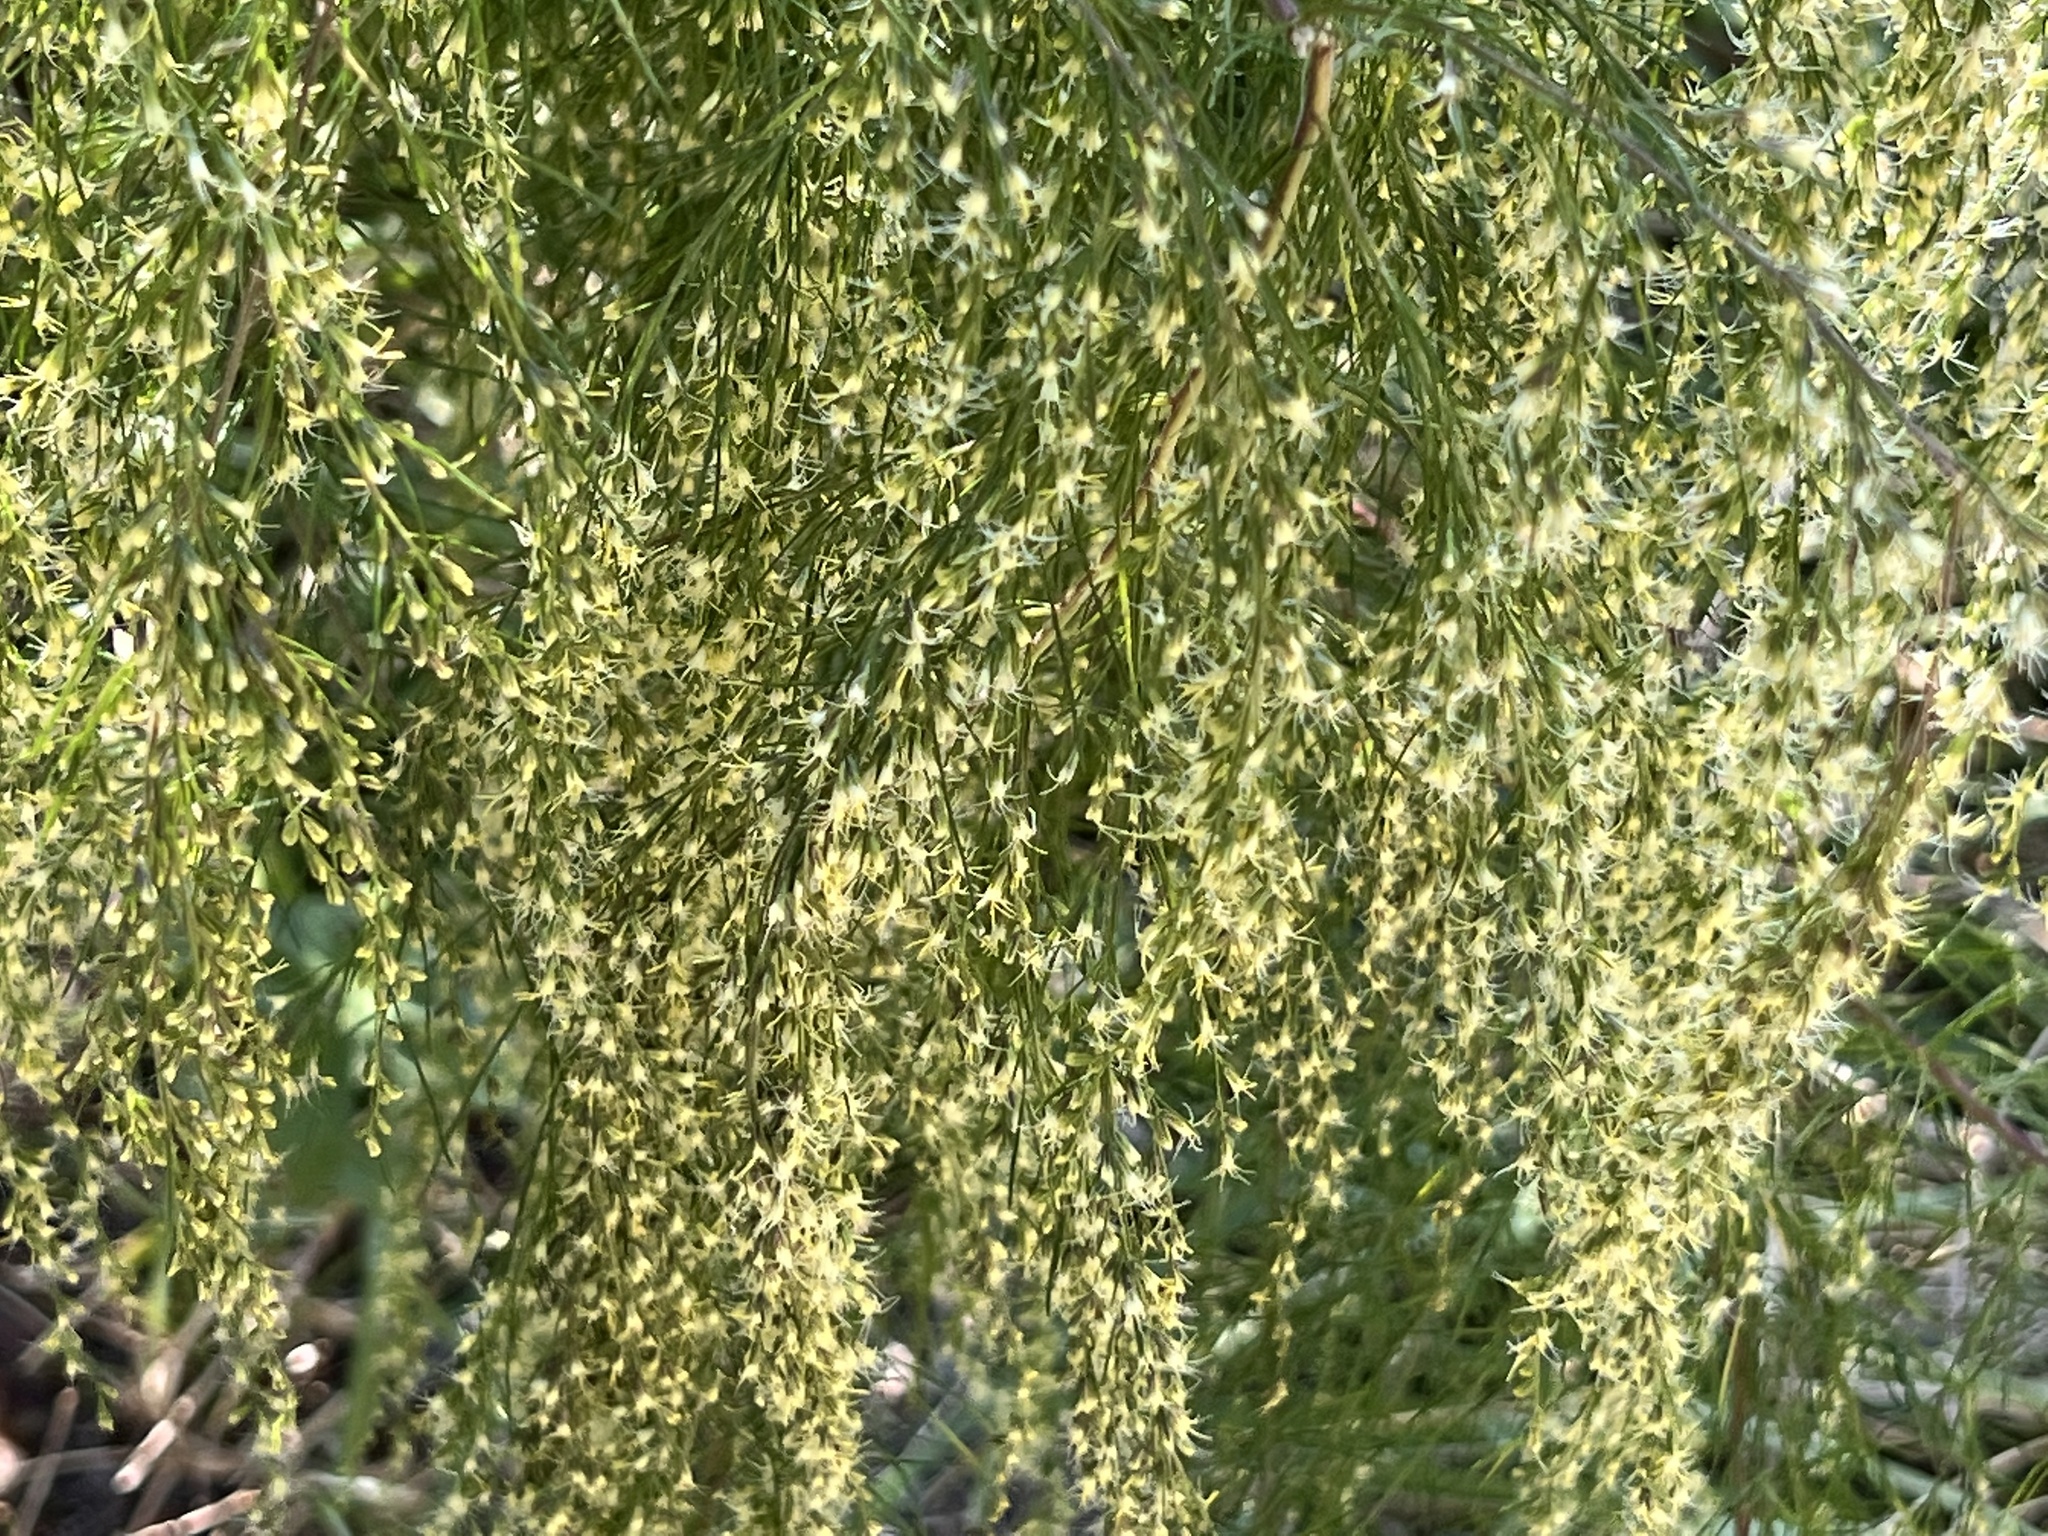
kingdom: Plantae
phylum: Tracheophyta
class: Magnoliopsida
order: Asterales
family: Asteraceae
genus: Eupatorium
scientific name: Eupatorium capillifolium
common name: Dog-fennel
